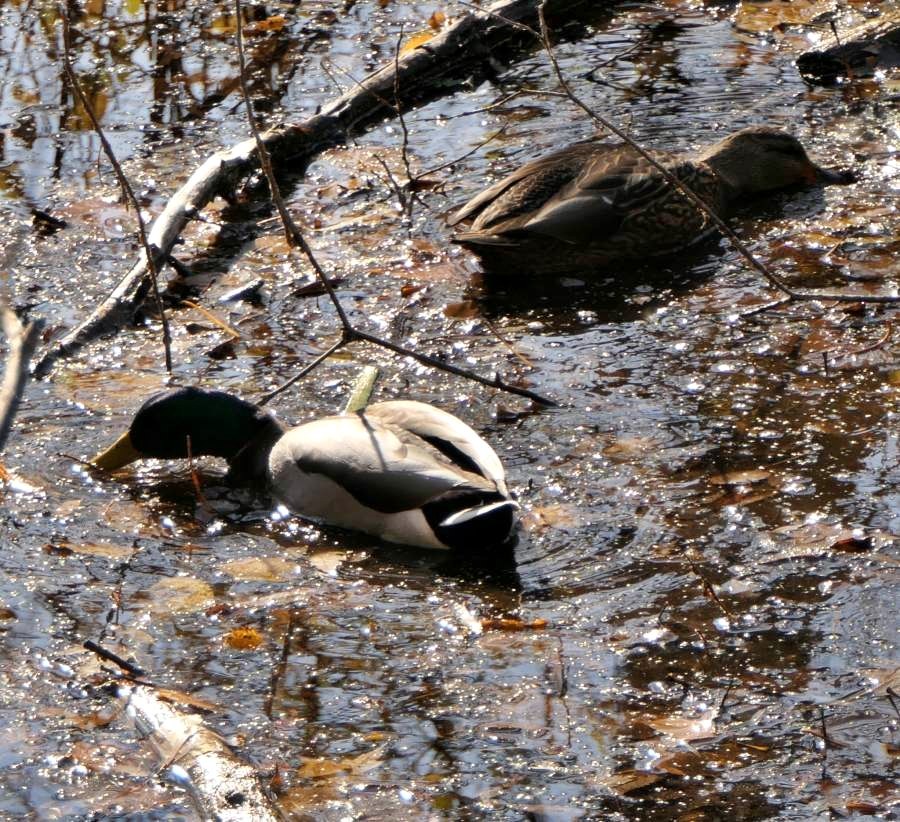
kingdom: Animalia
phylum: Chordata
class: Aves
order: Anseriformes
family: Anatidae
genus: Anas
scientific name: Anas platyrhynchos
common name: Mallard
